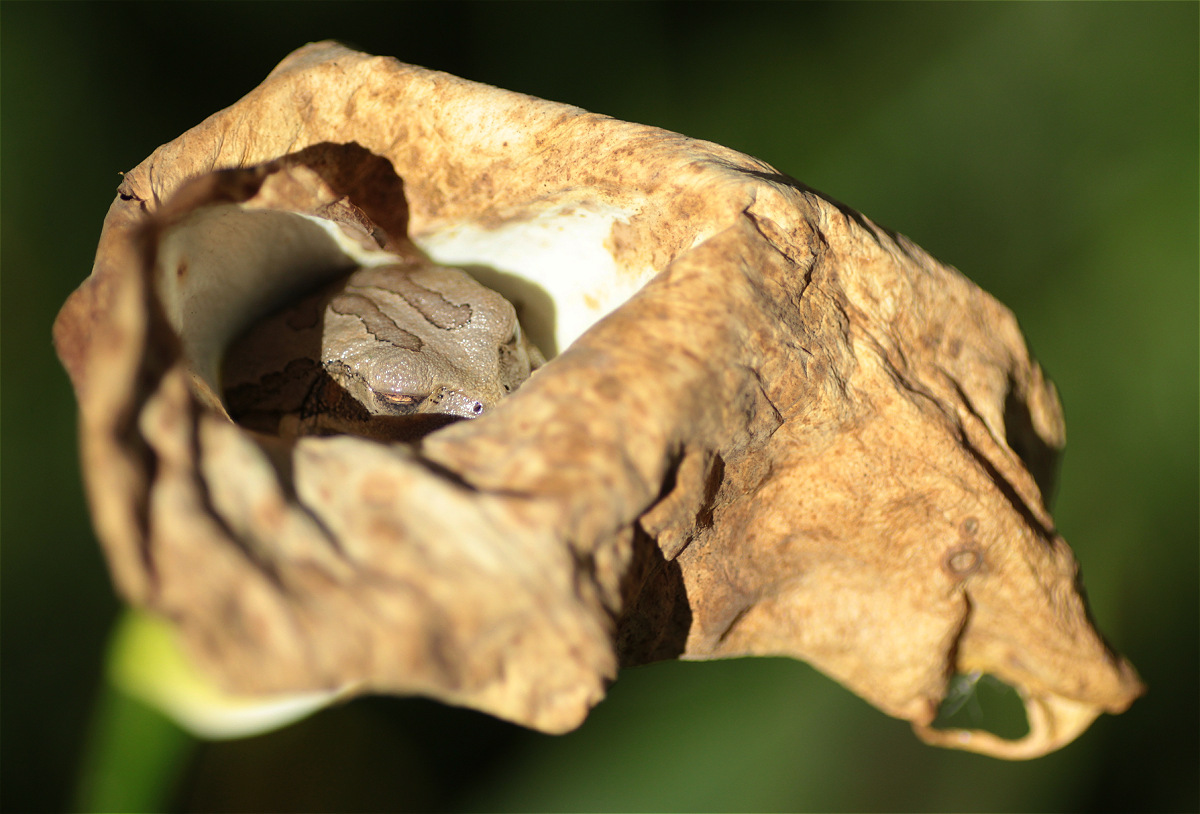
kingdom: Animalia
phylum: Chordata
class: Amphibia
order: Anura
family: Hemiphractidae
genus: Gastrotheca
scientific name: Gastrotheca cuencana
